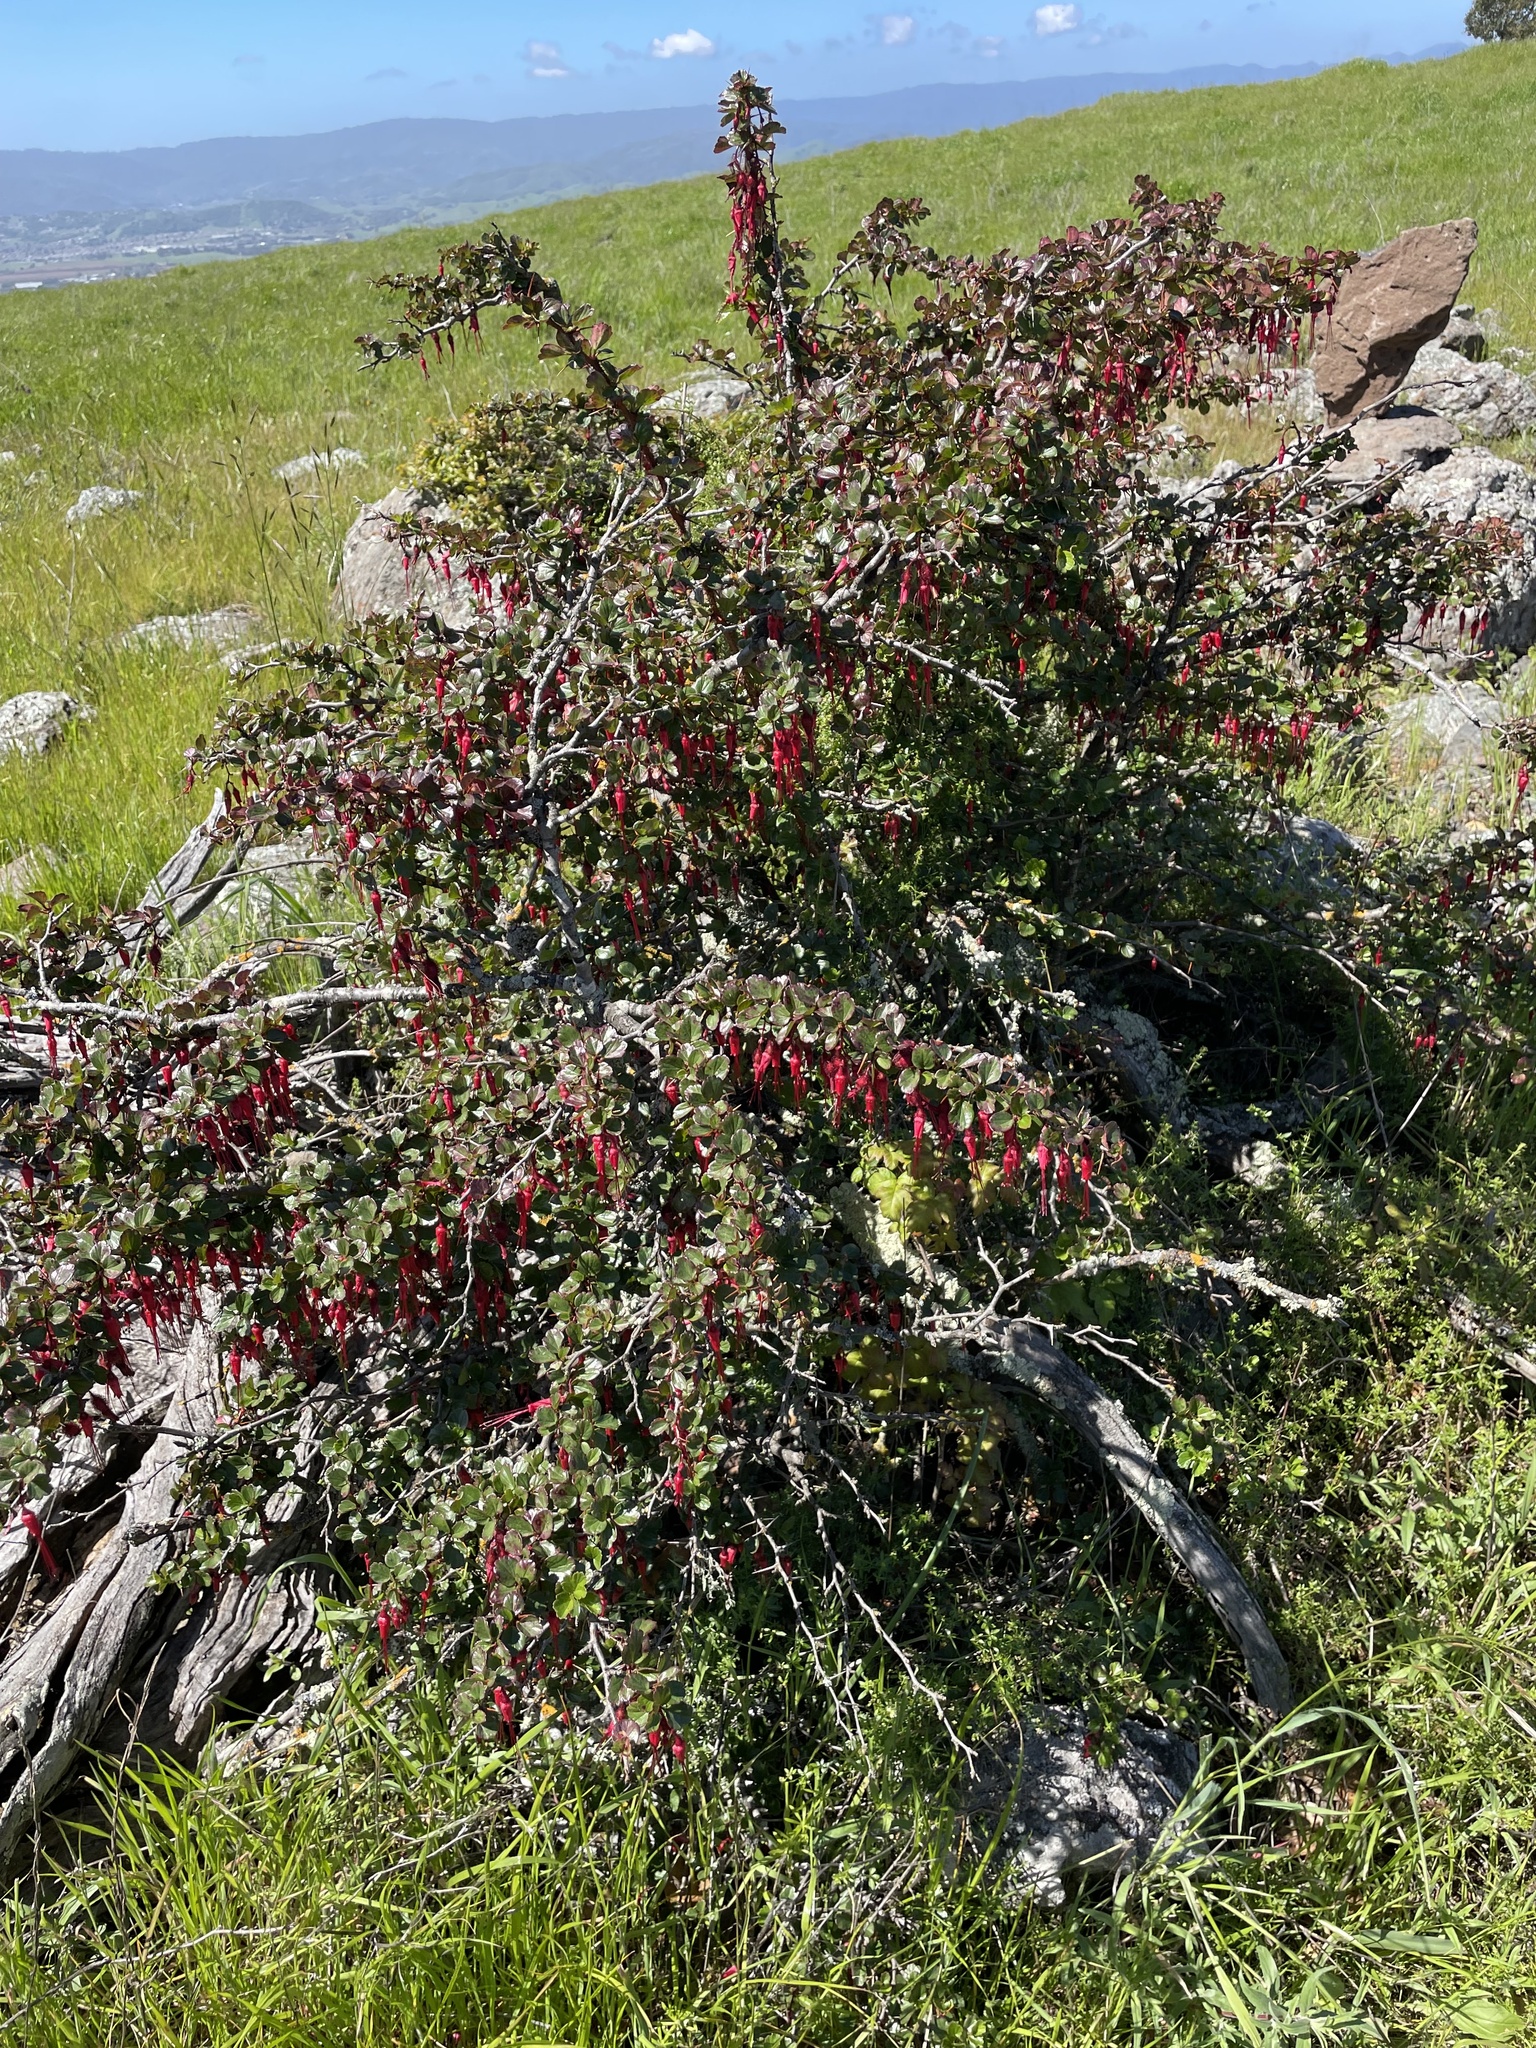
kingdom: Plantae
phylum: Tracheophyta
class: Magnoliopsida
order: Saxifragales
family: Grossulariaceae
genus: Ribes
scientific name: Ribes speciosum
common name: Fuchsia-flower gooseberry
